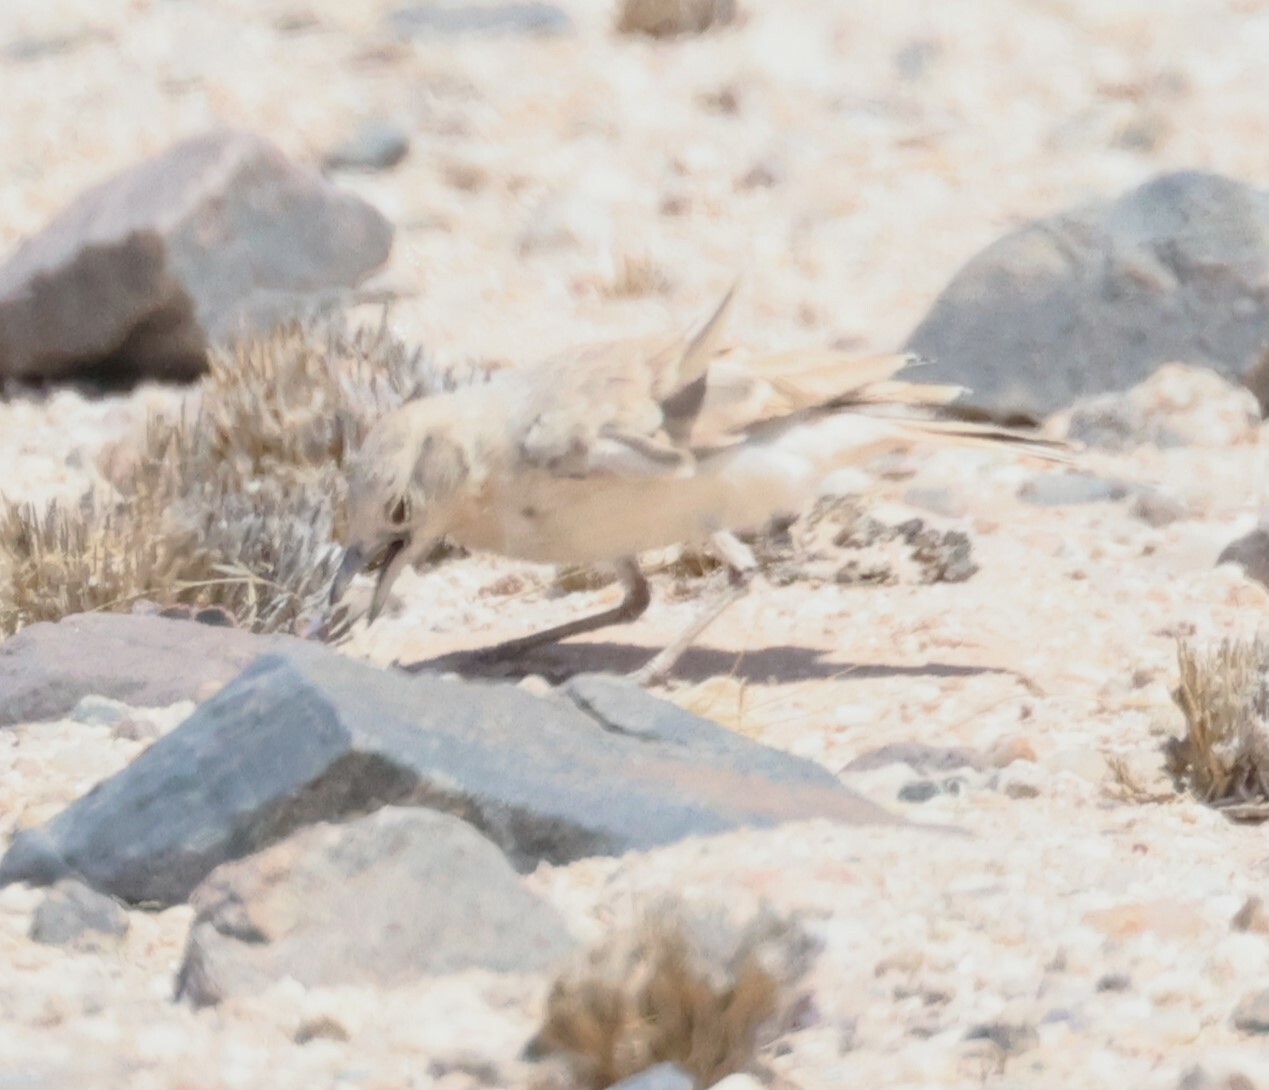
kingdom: Animalia
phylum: Chordata
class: Aves
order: Passeriformes
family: Alaudidae
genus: Ammomanopsis
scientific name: Ammomanopsis grayi
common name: Gray's lark
